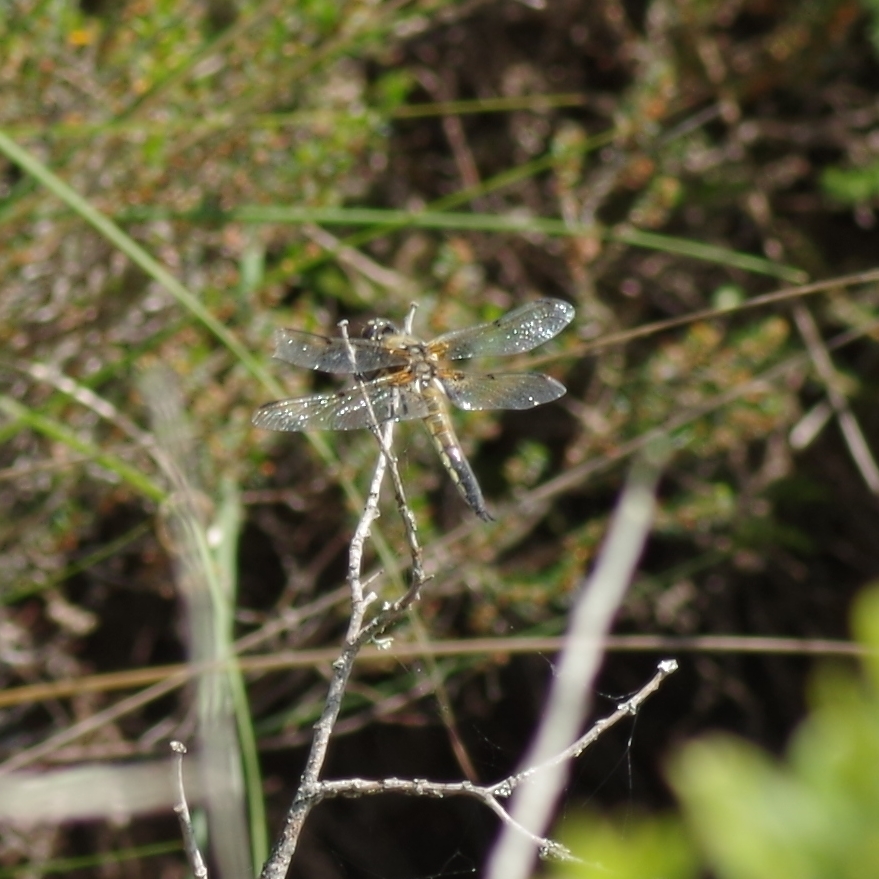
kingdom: Animalia
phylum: Arthropoda
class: Insecta
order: Odonata
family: Libellulidae
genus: Libellula
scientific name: Libellula quadrimaculata
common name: Four-spotted chaser
